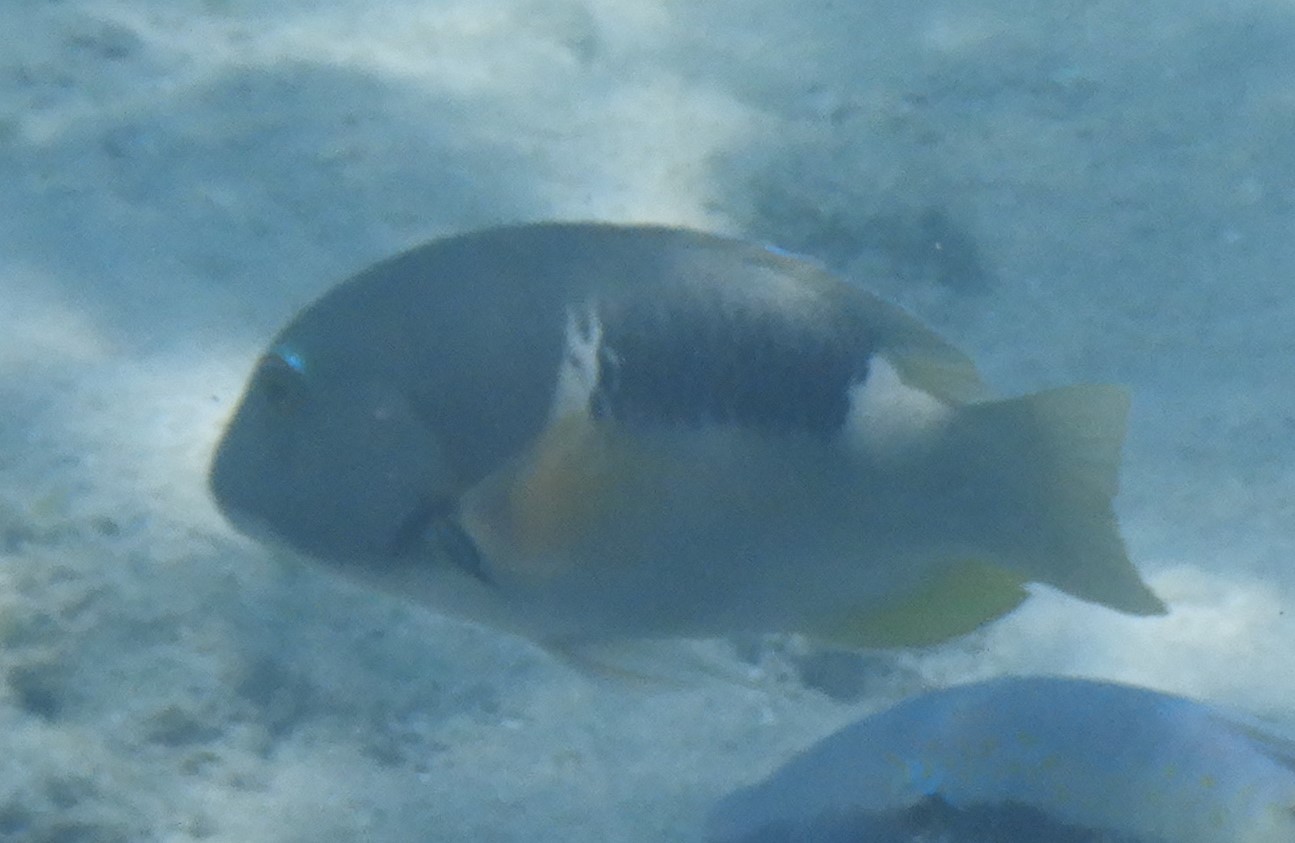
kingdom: Animalia
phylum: Chordata
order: Perciformes
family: Labridae
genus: Choerodon
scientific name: Choerodon anchorago
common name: Anchor tuskfish
